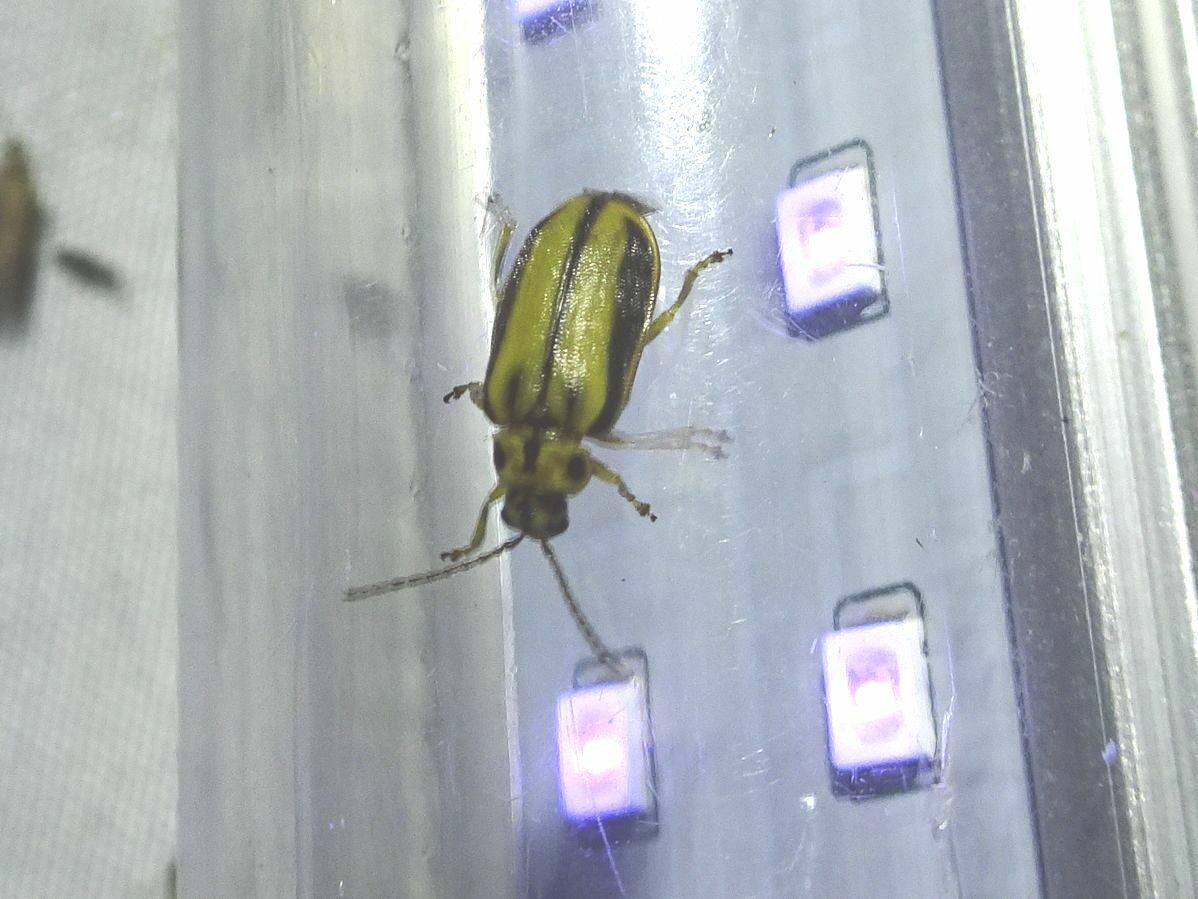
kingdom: Animalia
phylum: Arthropoda
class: Insecta
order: Coleoptera
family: Chrysomelidae
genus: Xanthogaleruca
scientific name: Xanthogaleruca luteola
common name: Elm leaf beetle
